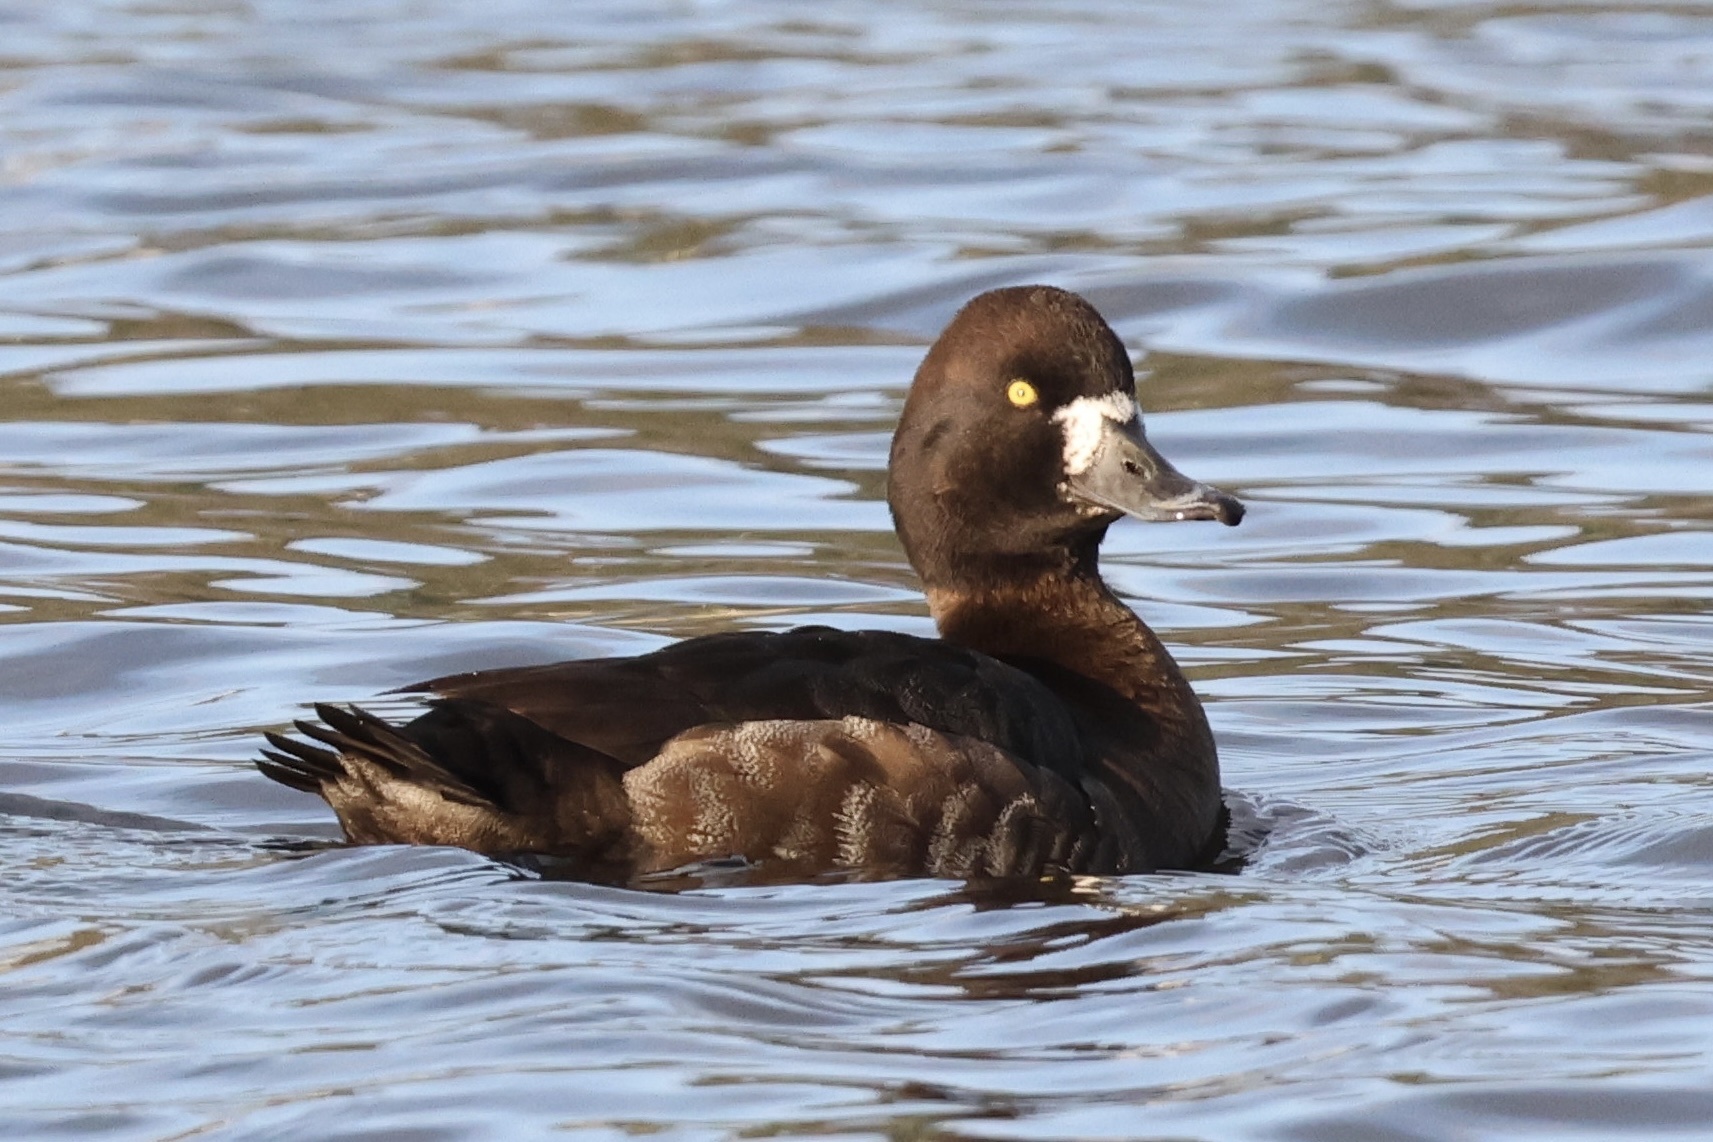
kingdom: Animalia
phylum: Chordata
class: Aves
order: Anseriformes
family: Anatidae
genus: Aythya
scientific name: Aythya affinis
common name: Lesser scaup
